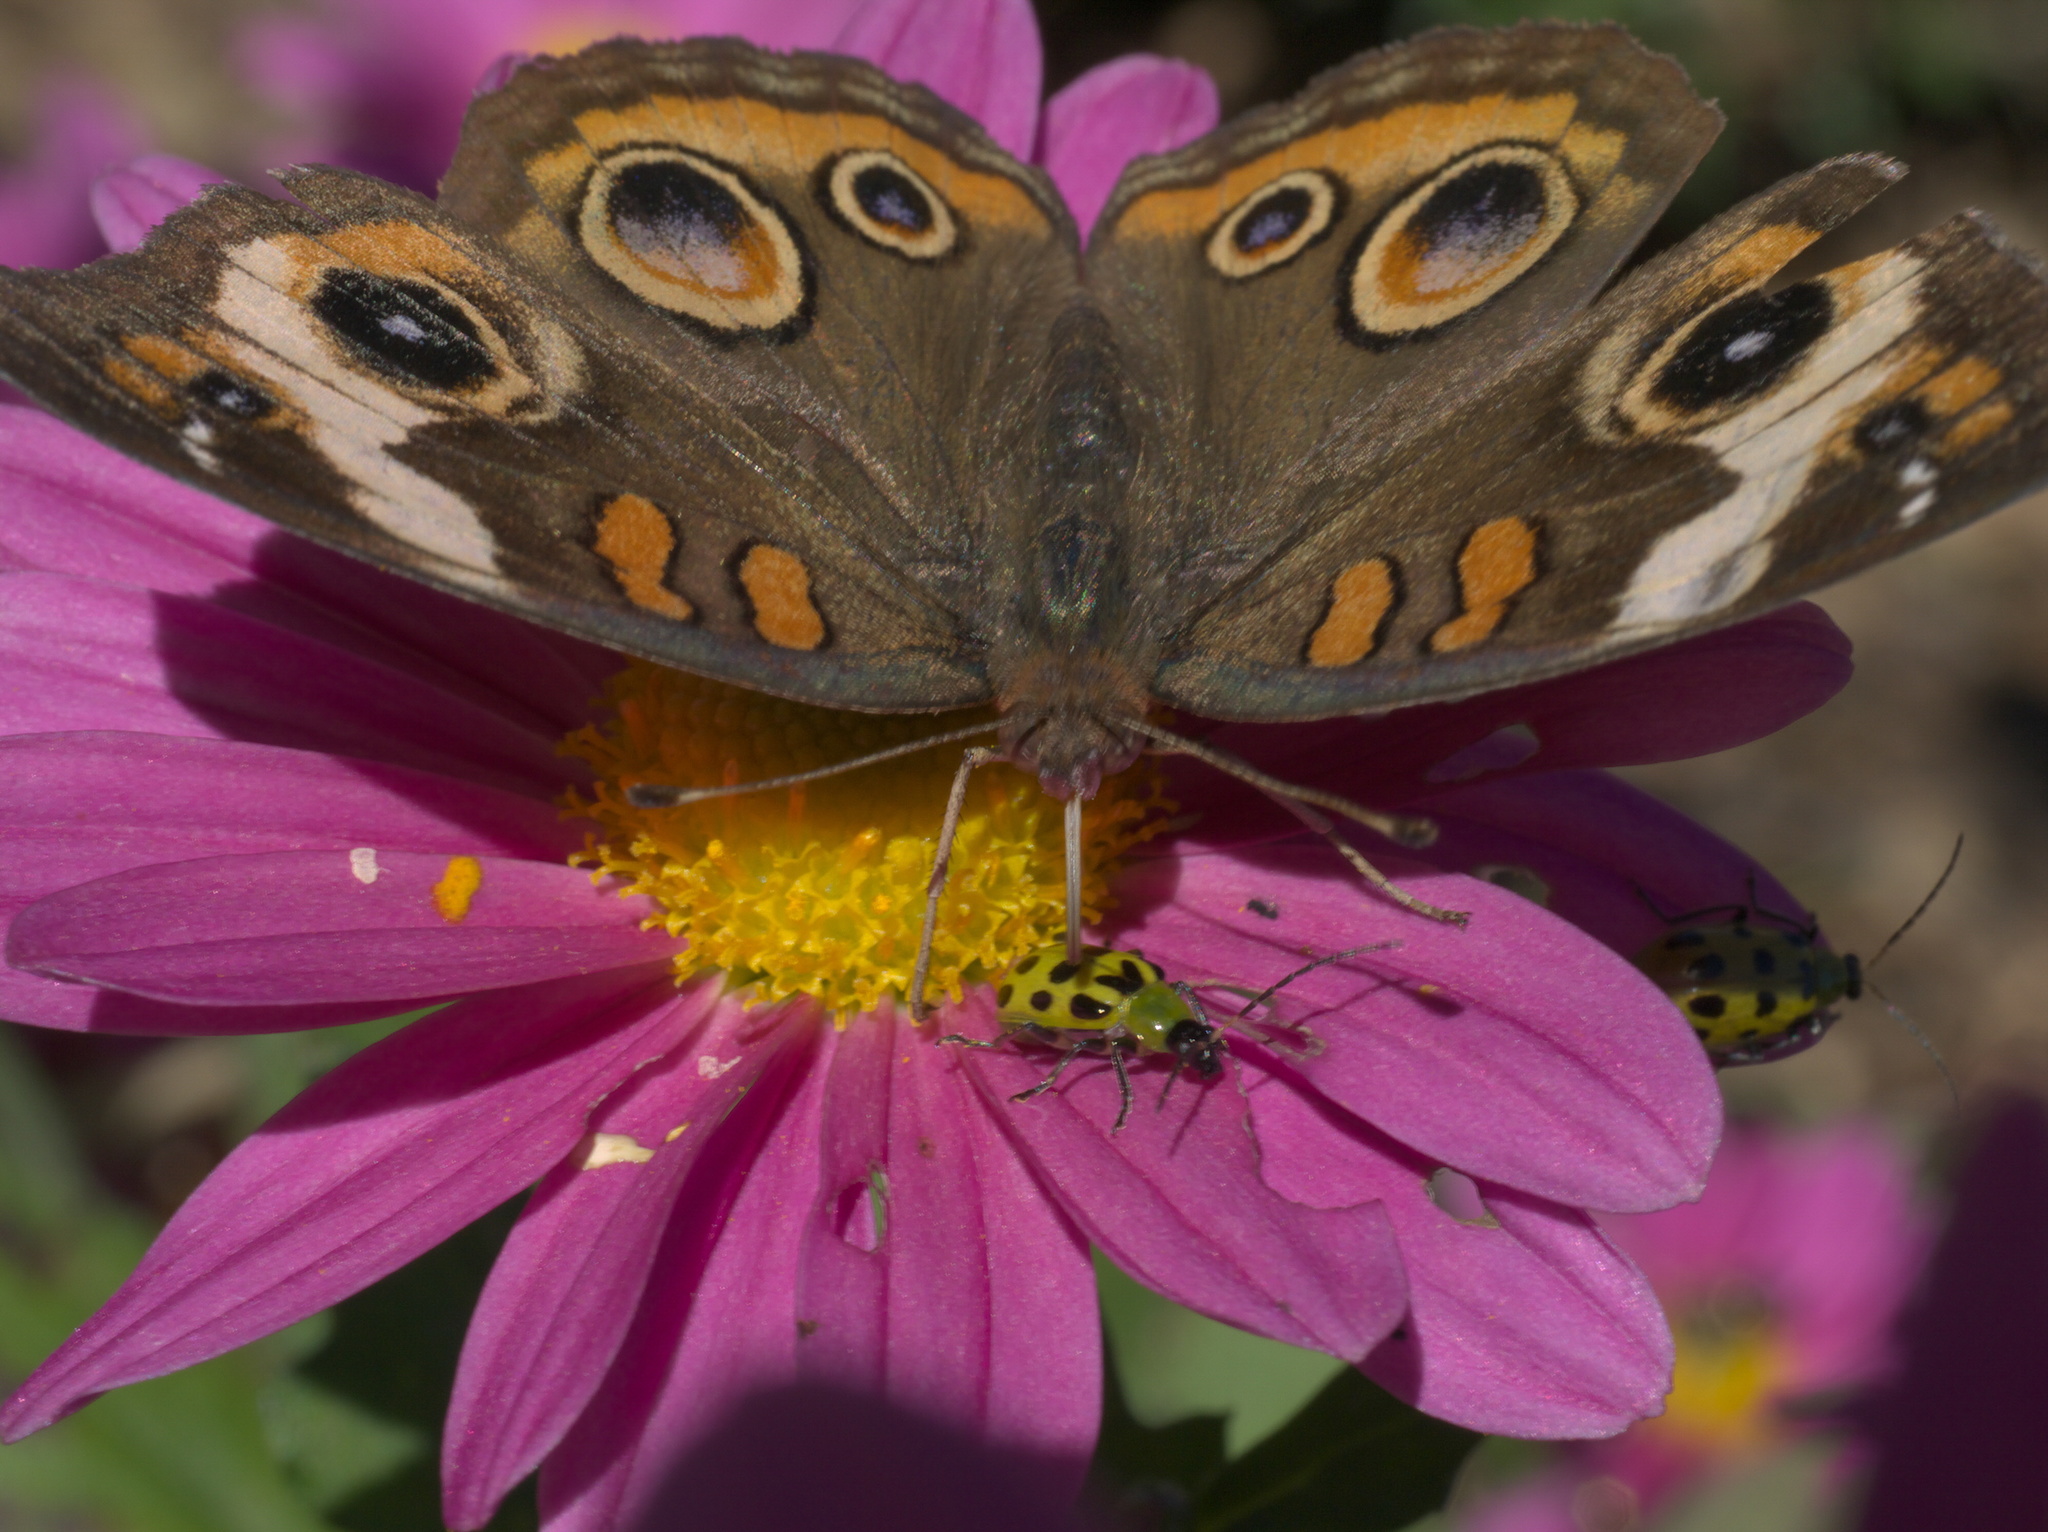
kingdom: Animalia
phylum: Arthropoda
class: Insecta
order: Lepidoptera
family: Nymphalidae
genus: Junonia
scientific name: Junonia coenia
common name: Common buckeye
